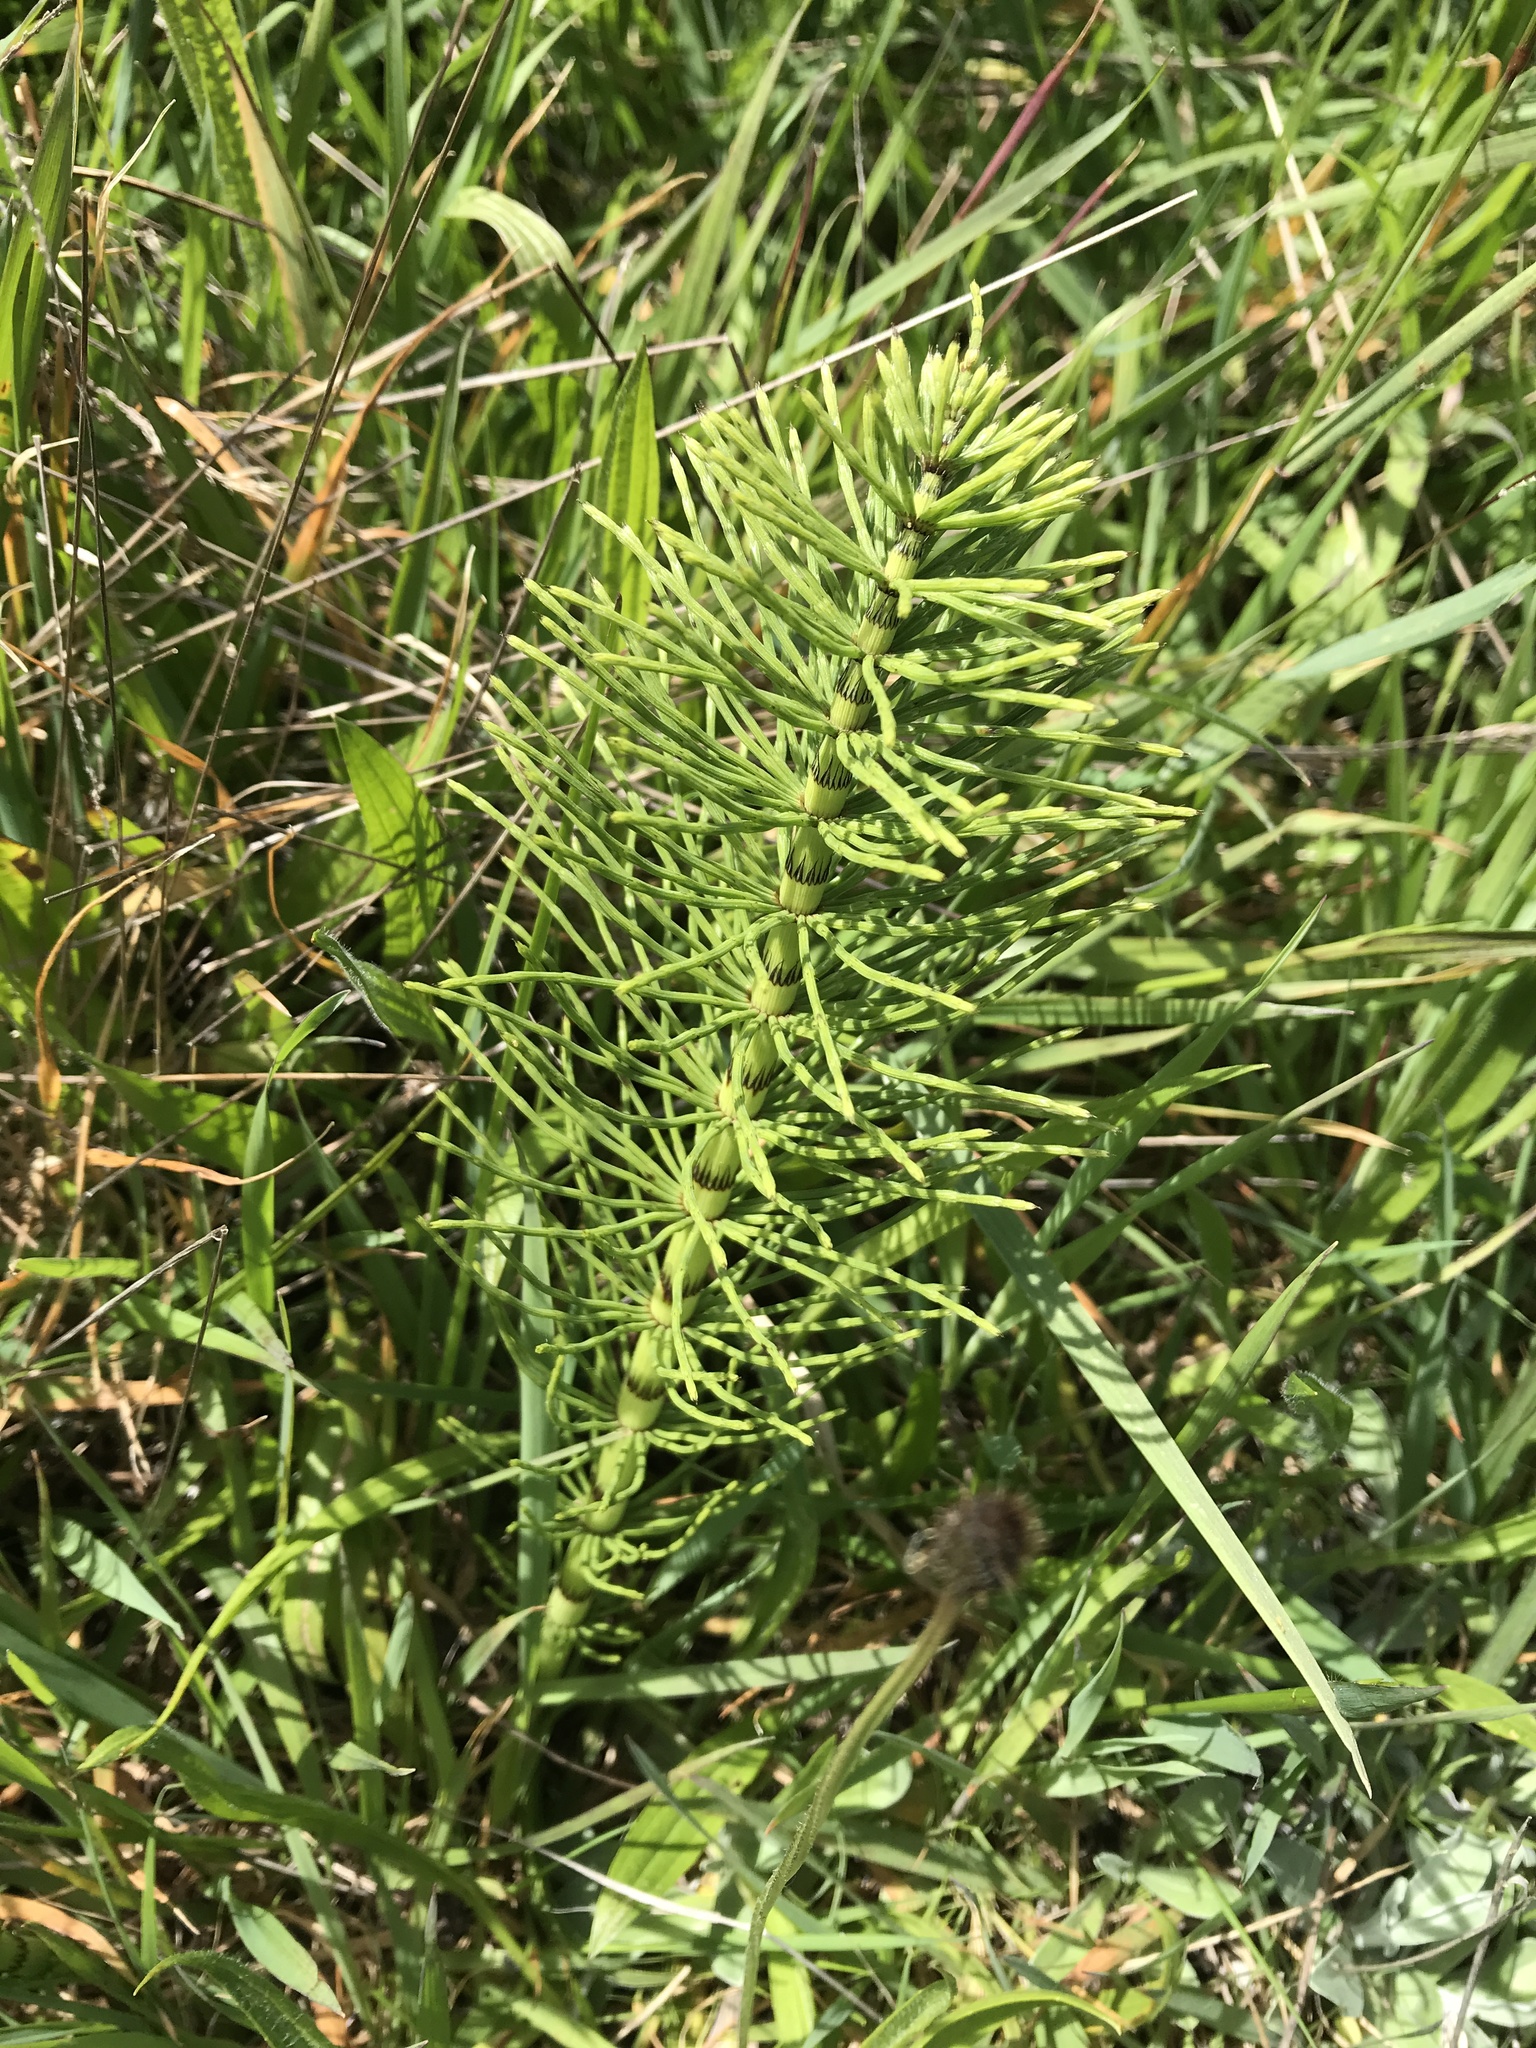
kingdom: Plantae
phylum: Tracheophyta
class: Polypodiopsida
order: Equisetales
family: Equisetaceae
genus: Equisetum
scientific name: Equisetum telmateia
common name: Great horsetail
